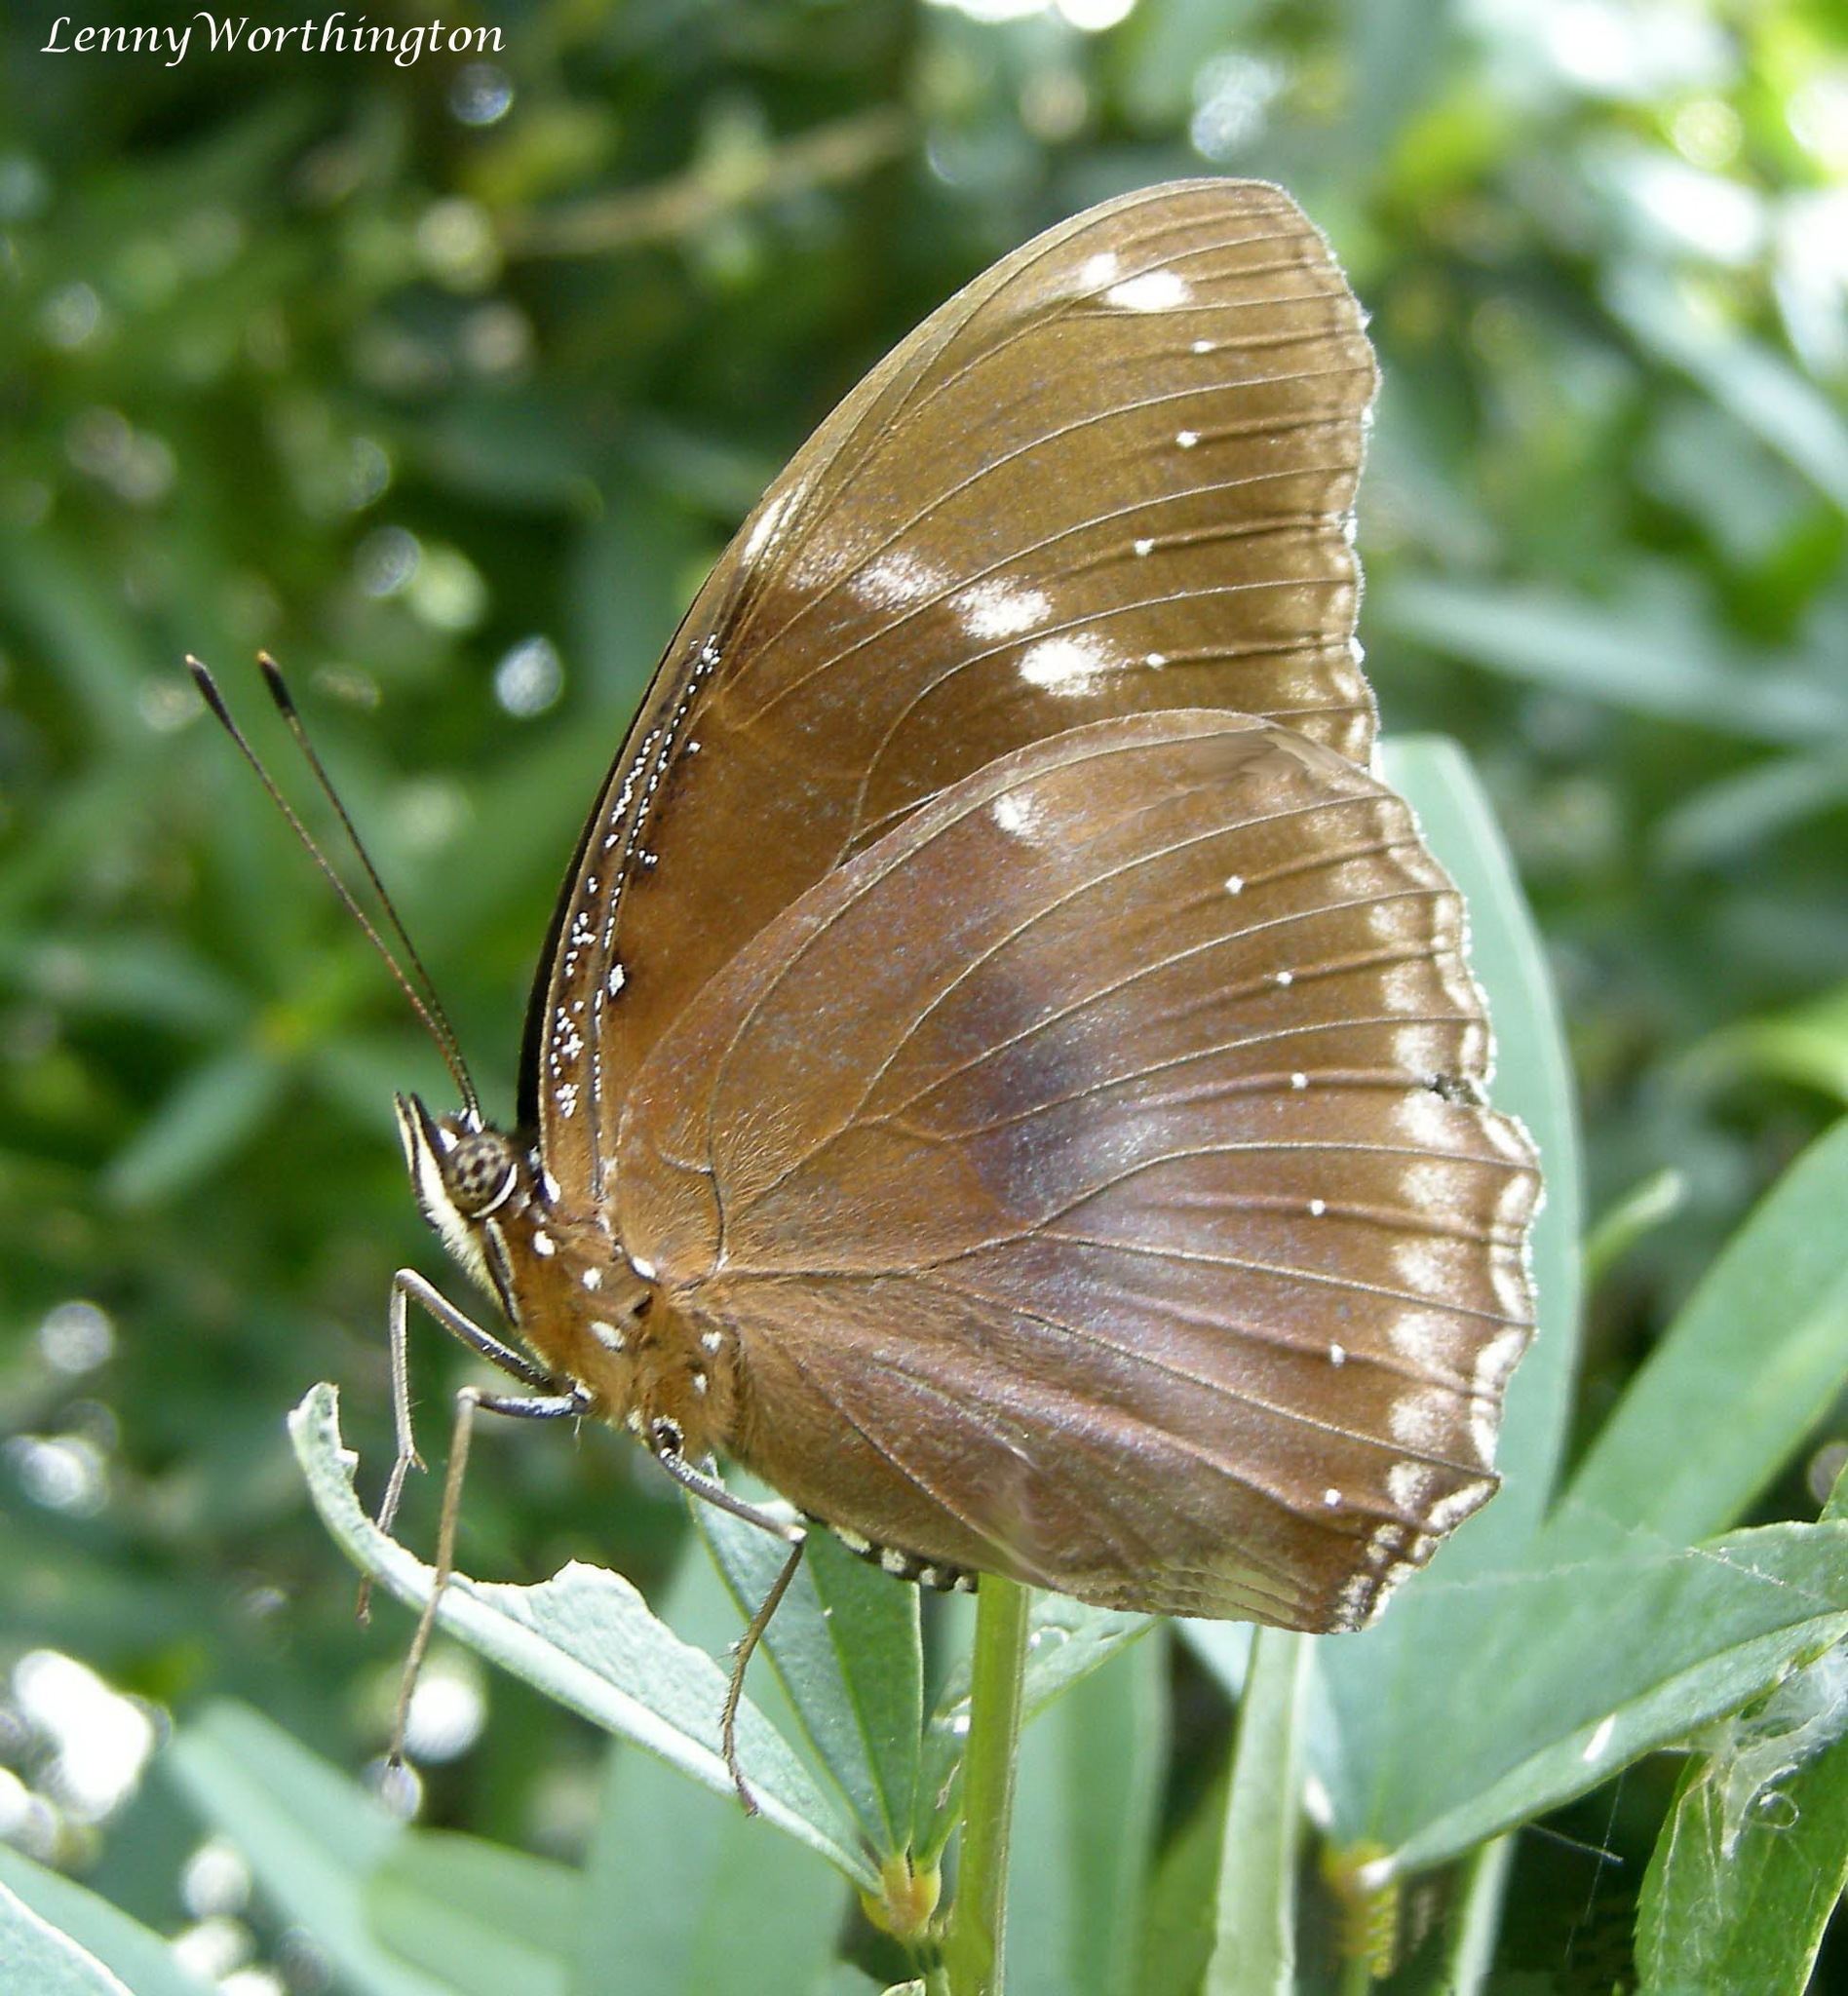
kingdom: Animalia
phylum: Arthropoda
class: Insecta
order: Lepidoptera
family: Nymphalidae
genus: Hypolimnas
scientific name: Hypolimnas bolina
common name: Great eggfly
